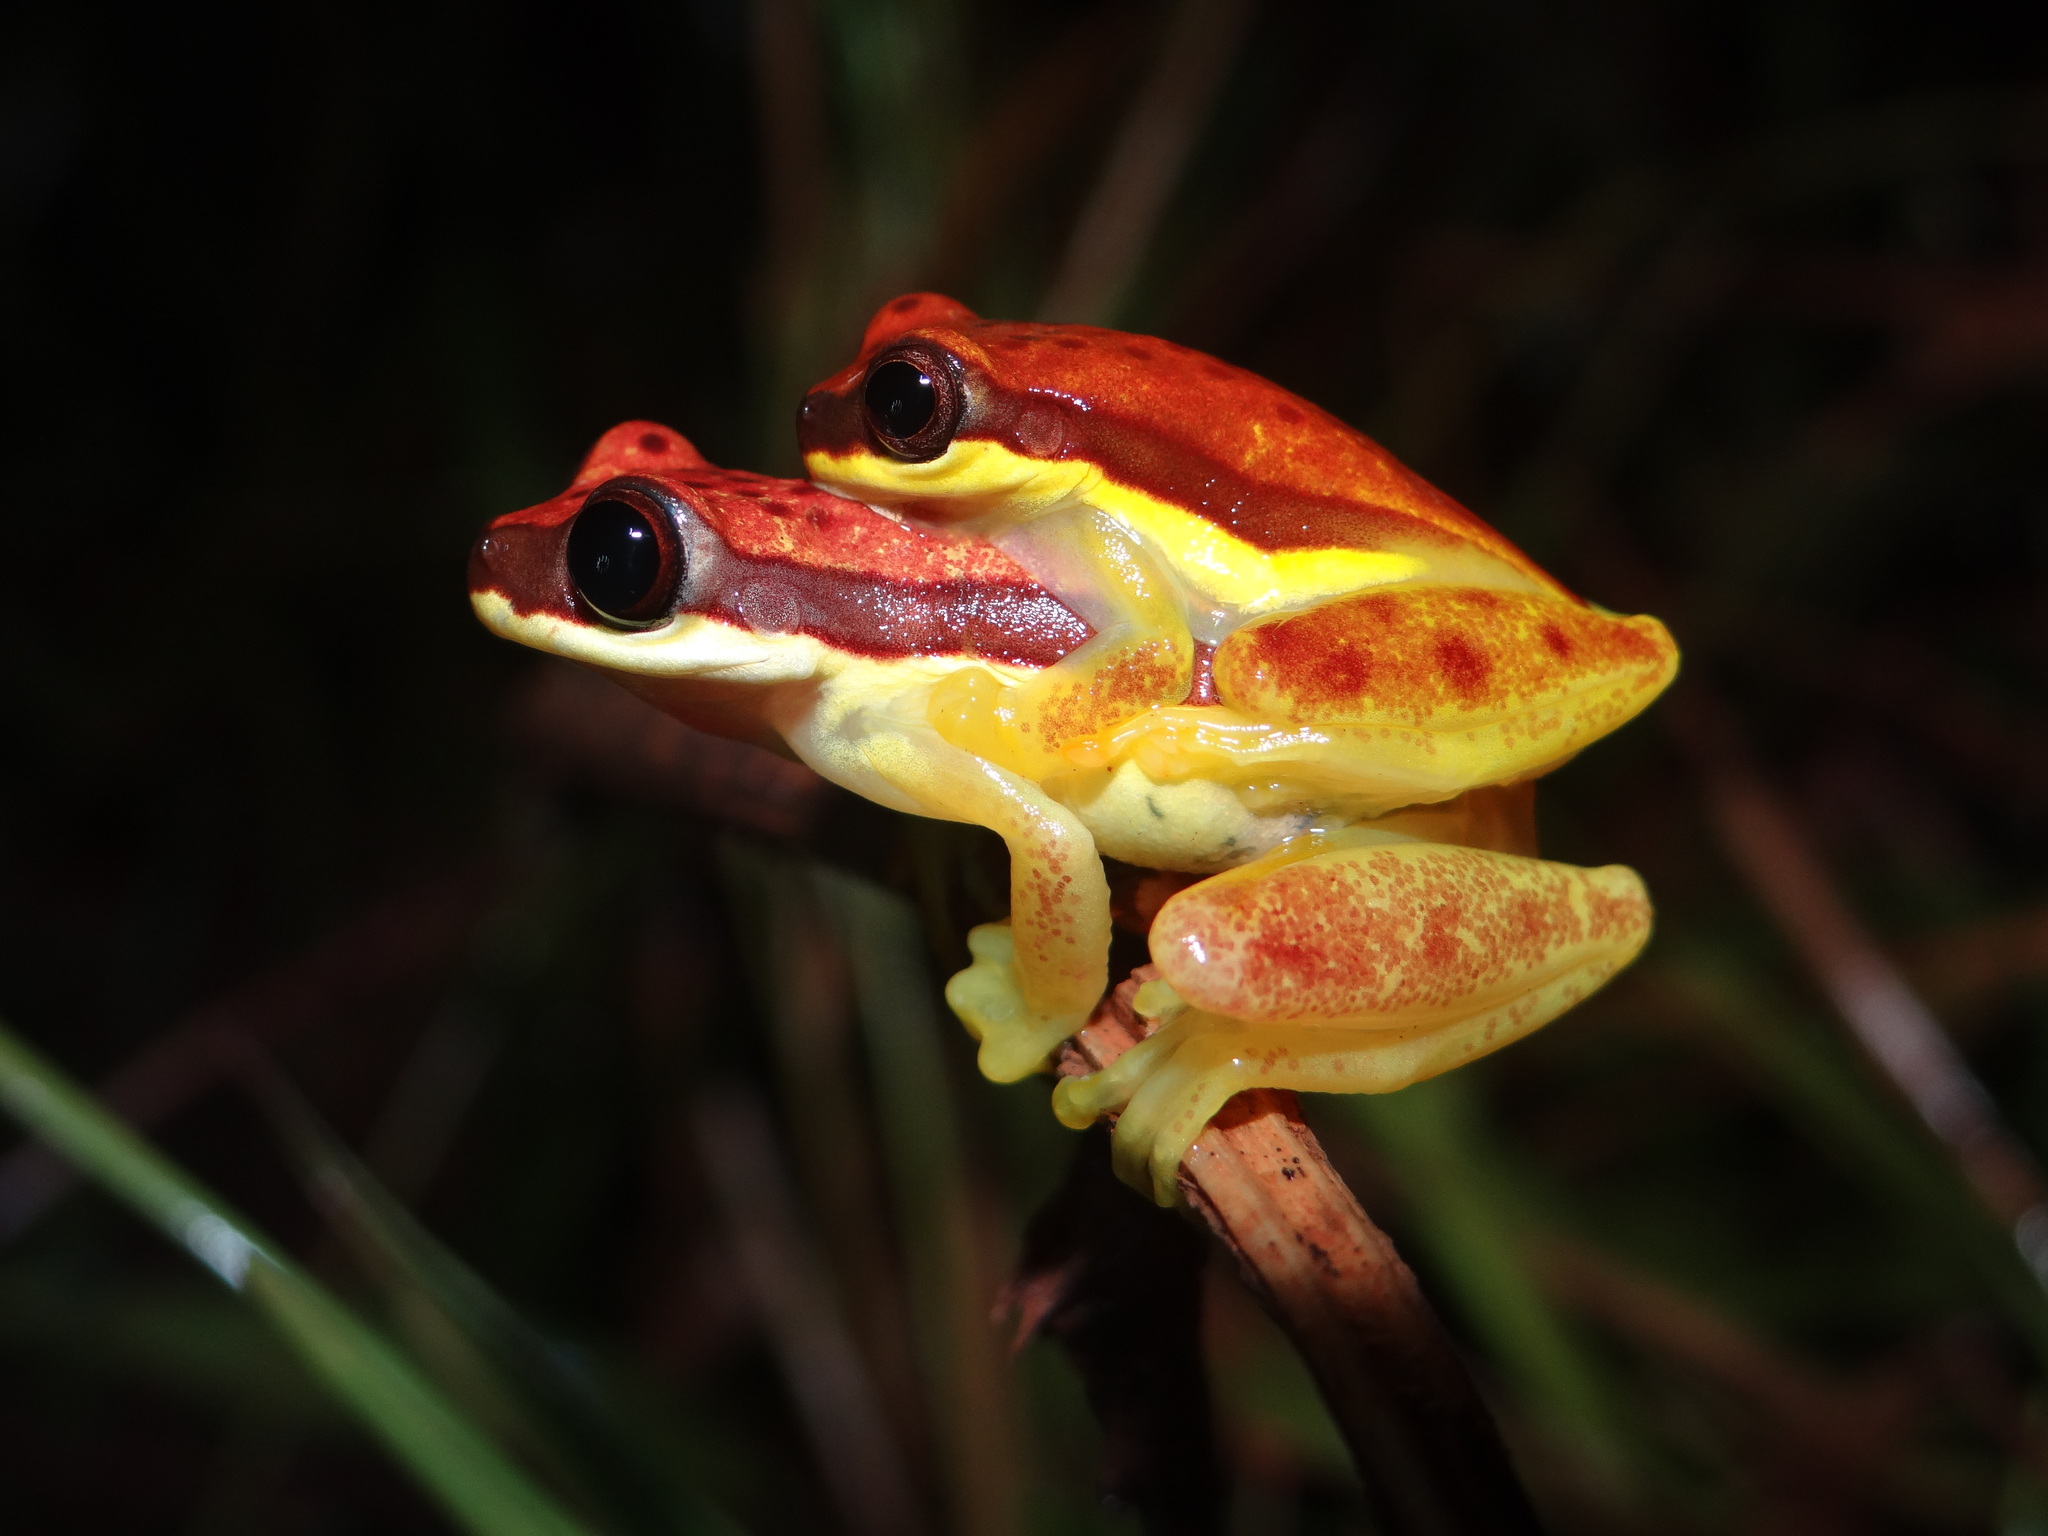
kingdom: Animalia
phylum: Chordata
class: Amphibia
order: Anura
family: Hylidae
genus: Dendropsophus
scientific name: Dendropsophus rhodopeplus
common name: Red-skirted treefrog
